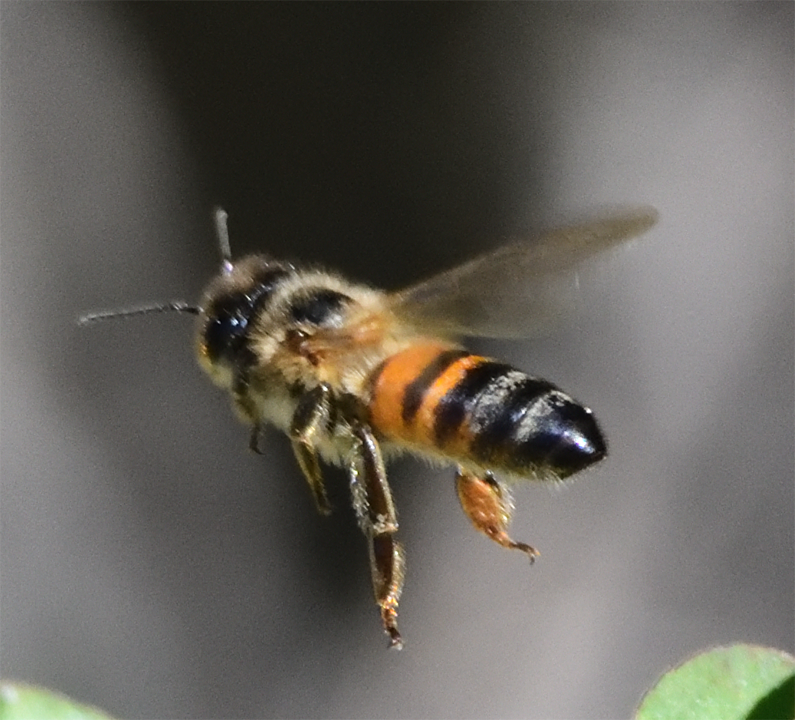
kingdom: Animalia
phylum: Arthropoda
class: Insecta
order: Hymenoptera
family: Apidae
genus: Apis
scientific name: Apis mellifera
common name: Honey bee
